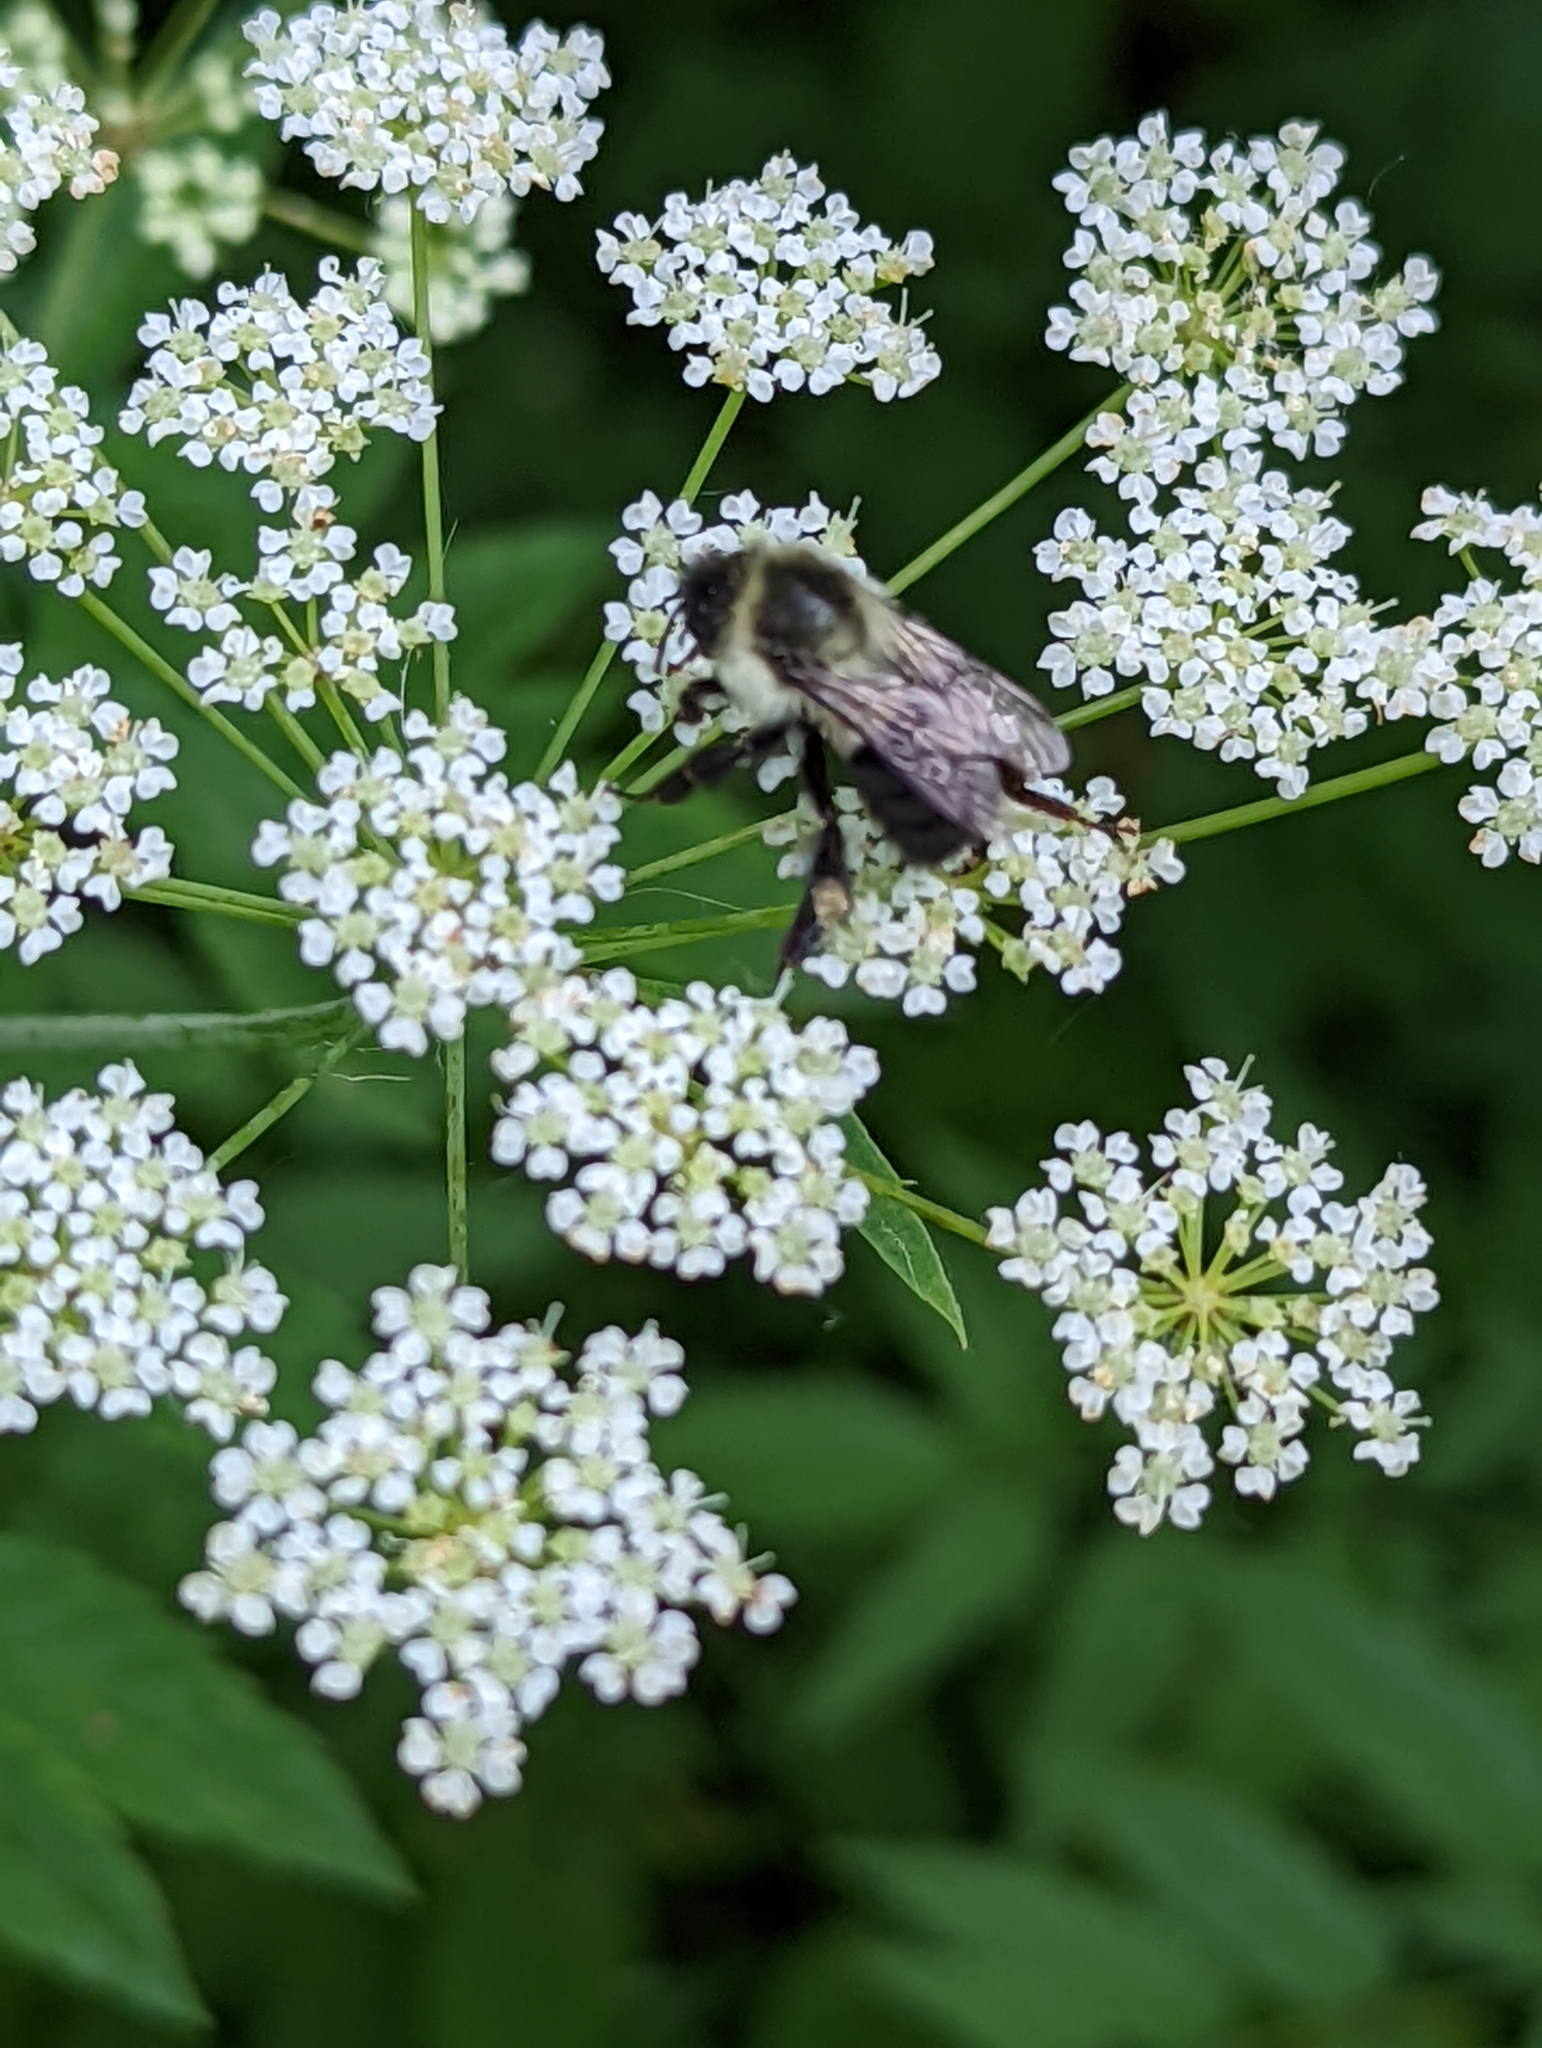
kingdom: Animalia
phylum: Arthropoda
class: Insecta
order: Hymenoptera
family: Apidae
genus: Bombus
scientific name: Bombus impatiens
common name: Common eastern bumble bee
